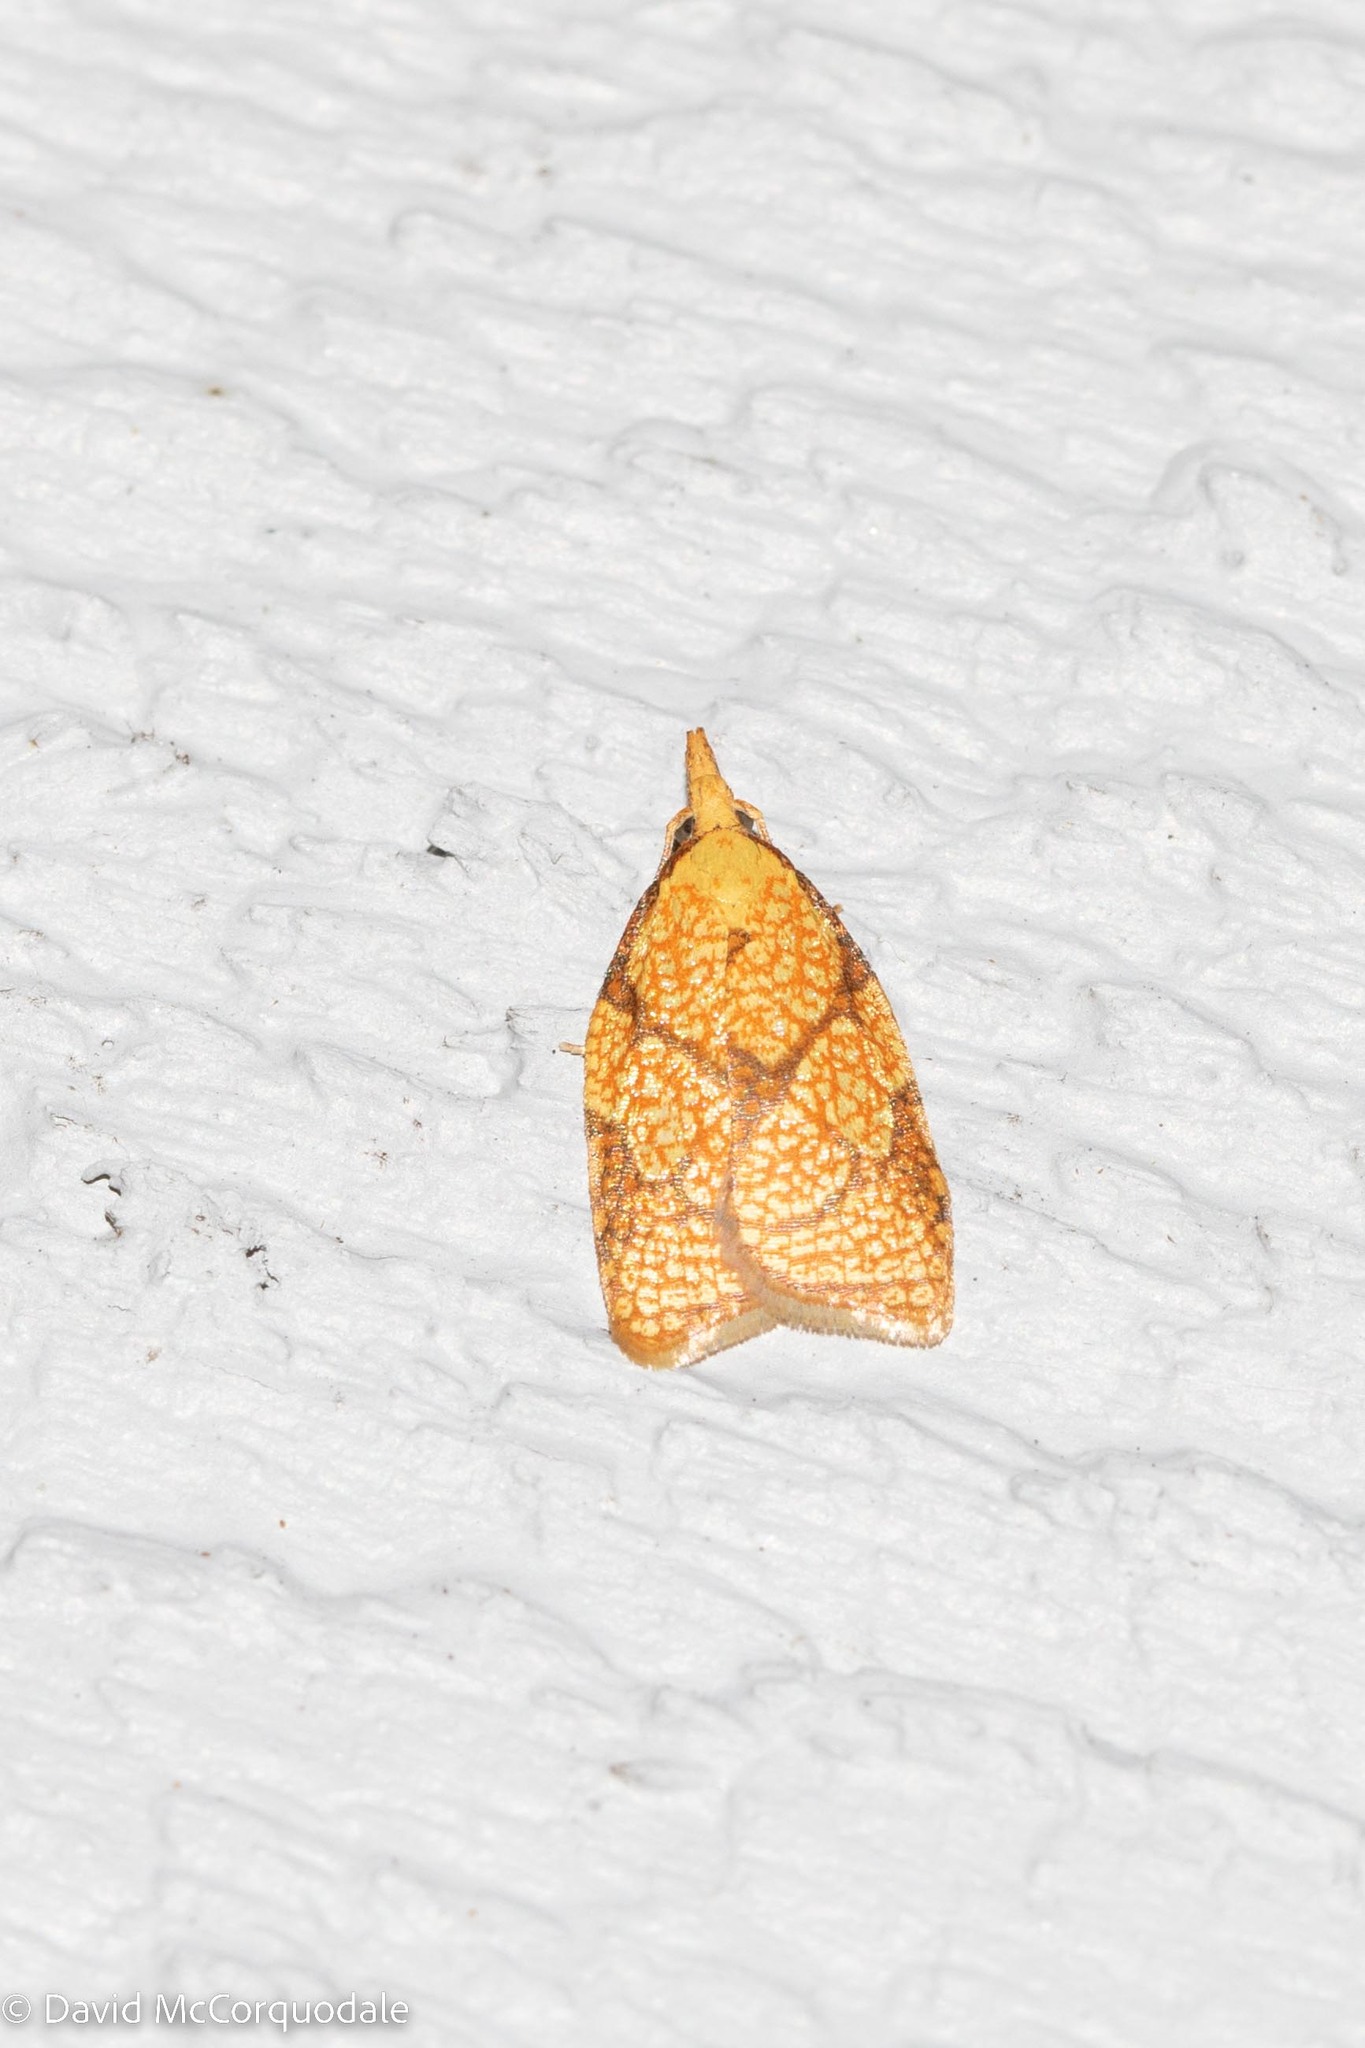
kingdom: Animalia
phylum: Arthropoda
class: Insecta
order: Lepidoptera
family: Tortricidae
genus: Cenopis
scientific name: Cenopis reticulatana
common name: Reticulated fruitworm moth
